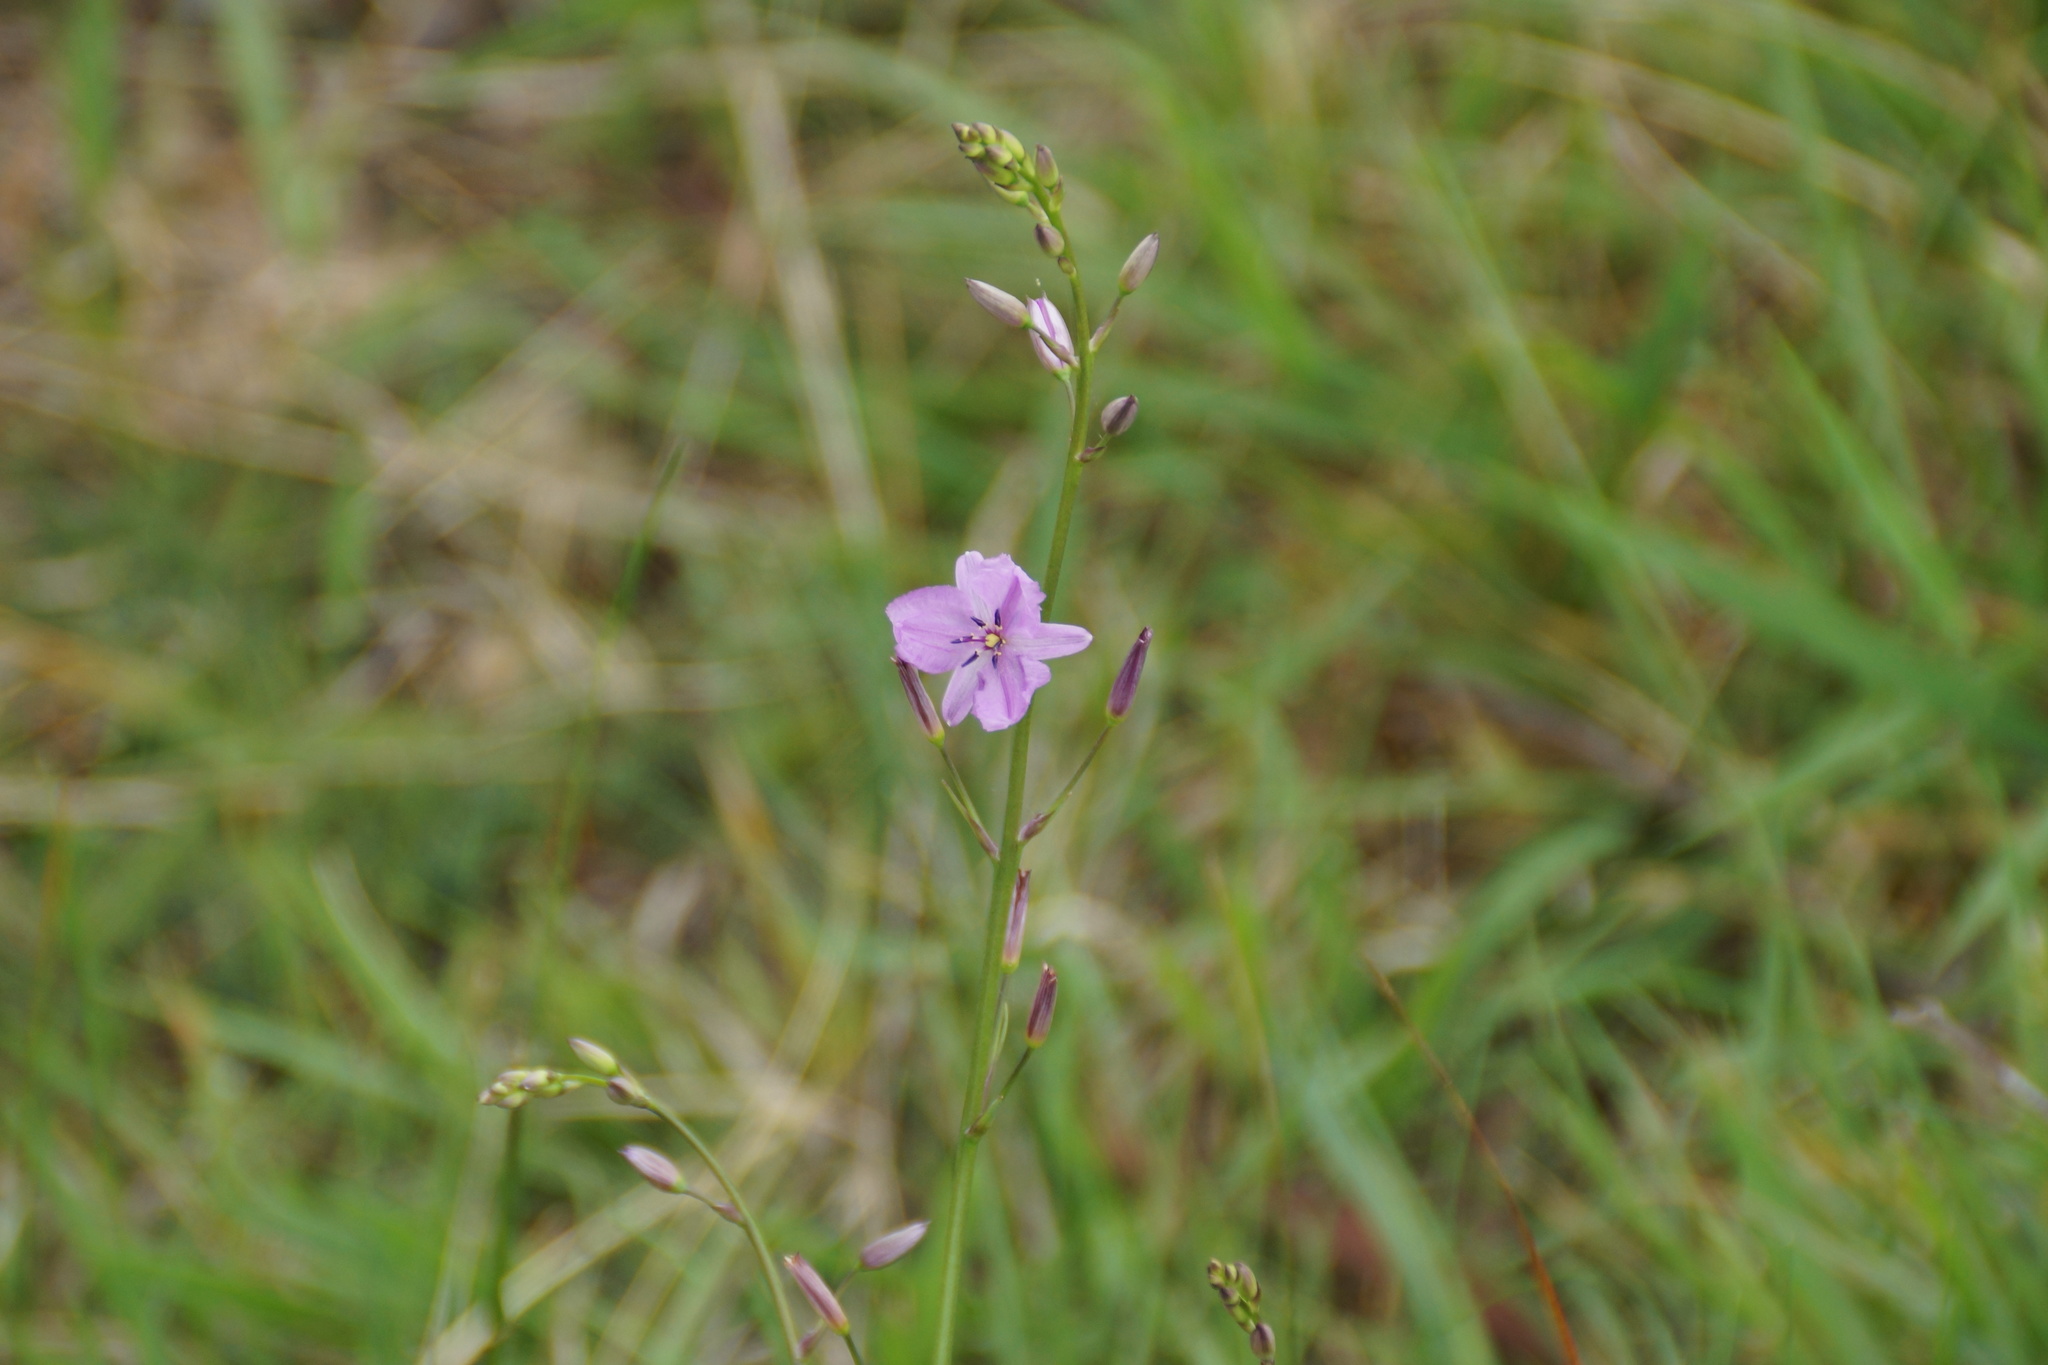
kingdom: Plantae
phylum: Tracheophyta
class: Liliopsida
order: Asparagales
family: Asparagaceae
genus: Arthropodium
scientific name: Arthropodium strictum
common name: Chocolate-lily
